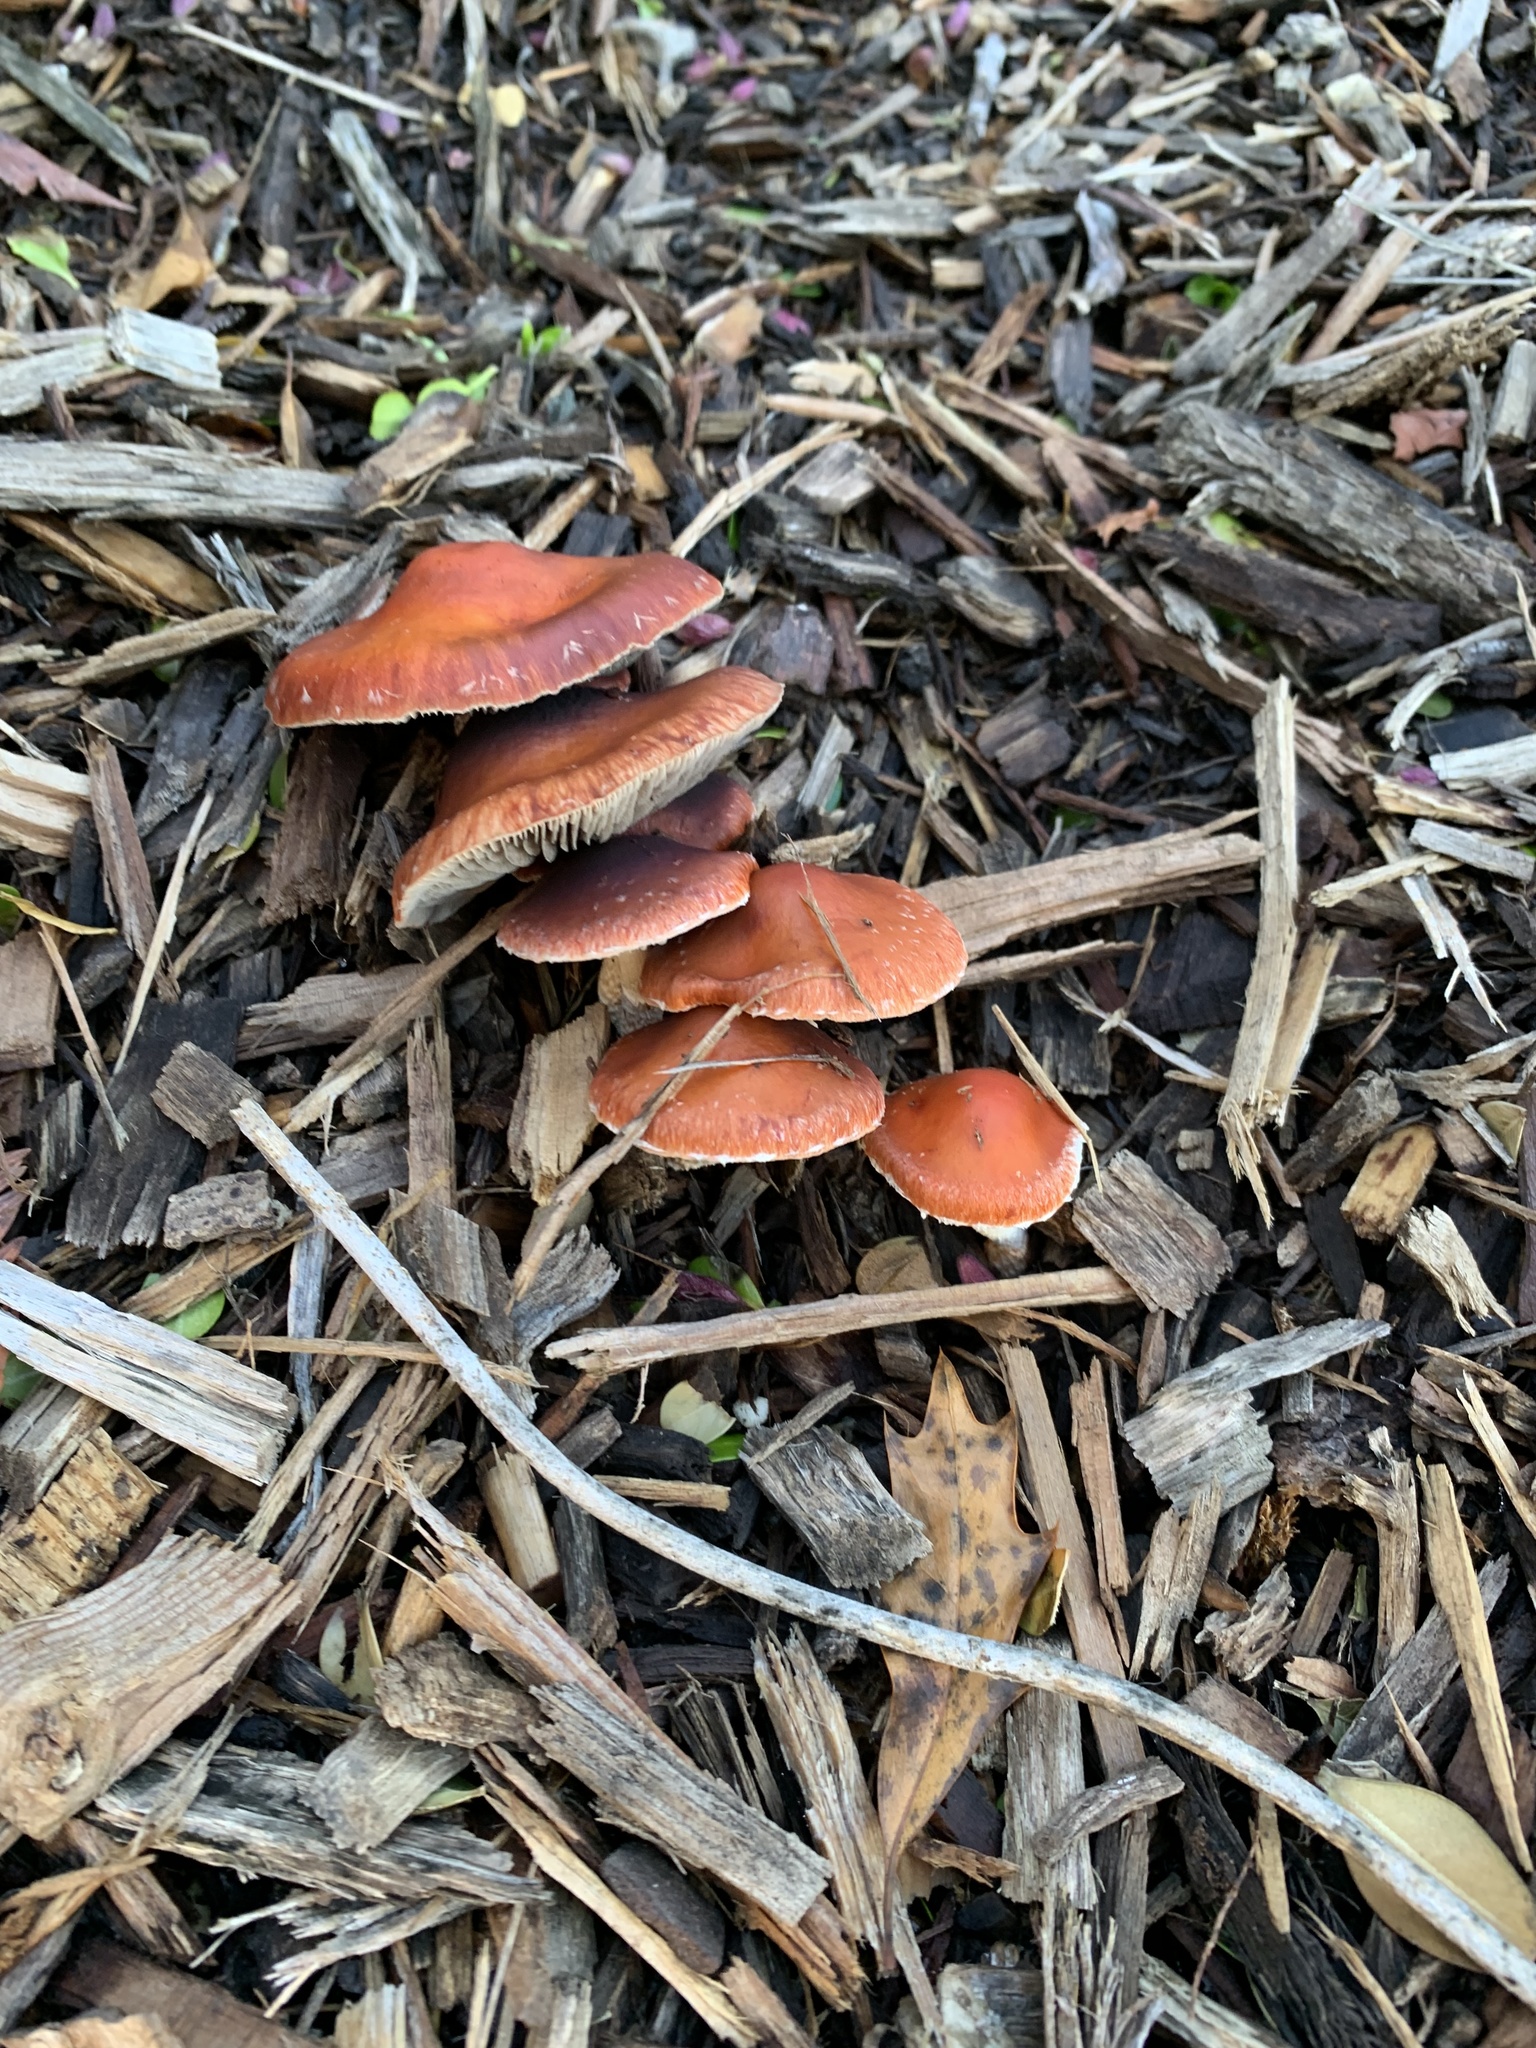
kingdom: Fungi
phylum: Basidiomycota
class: Agaricomycetes
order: Agaricales
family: Strophariaceae
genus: Leratiomyces
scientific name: Leratiomyces ceres
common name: Redlead roundhead
